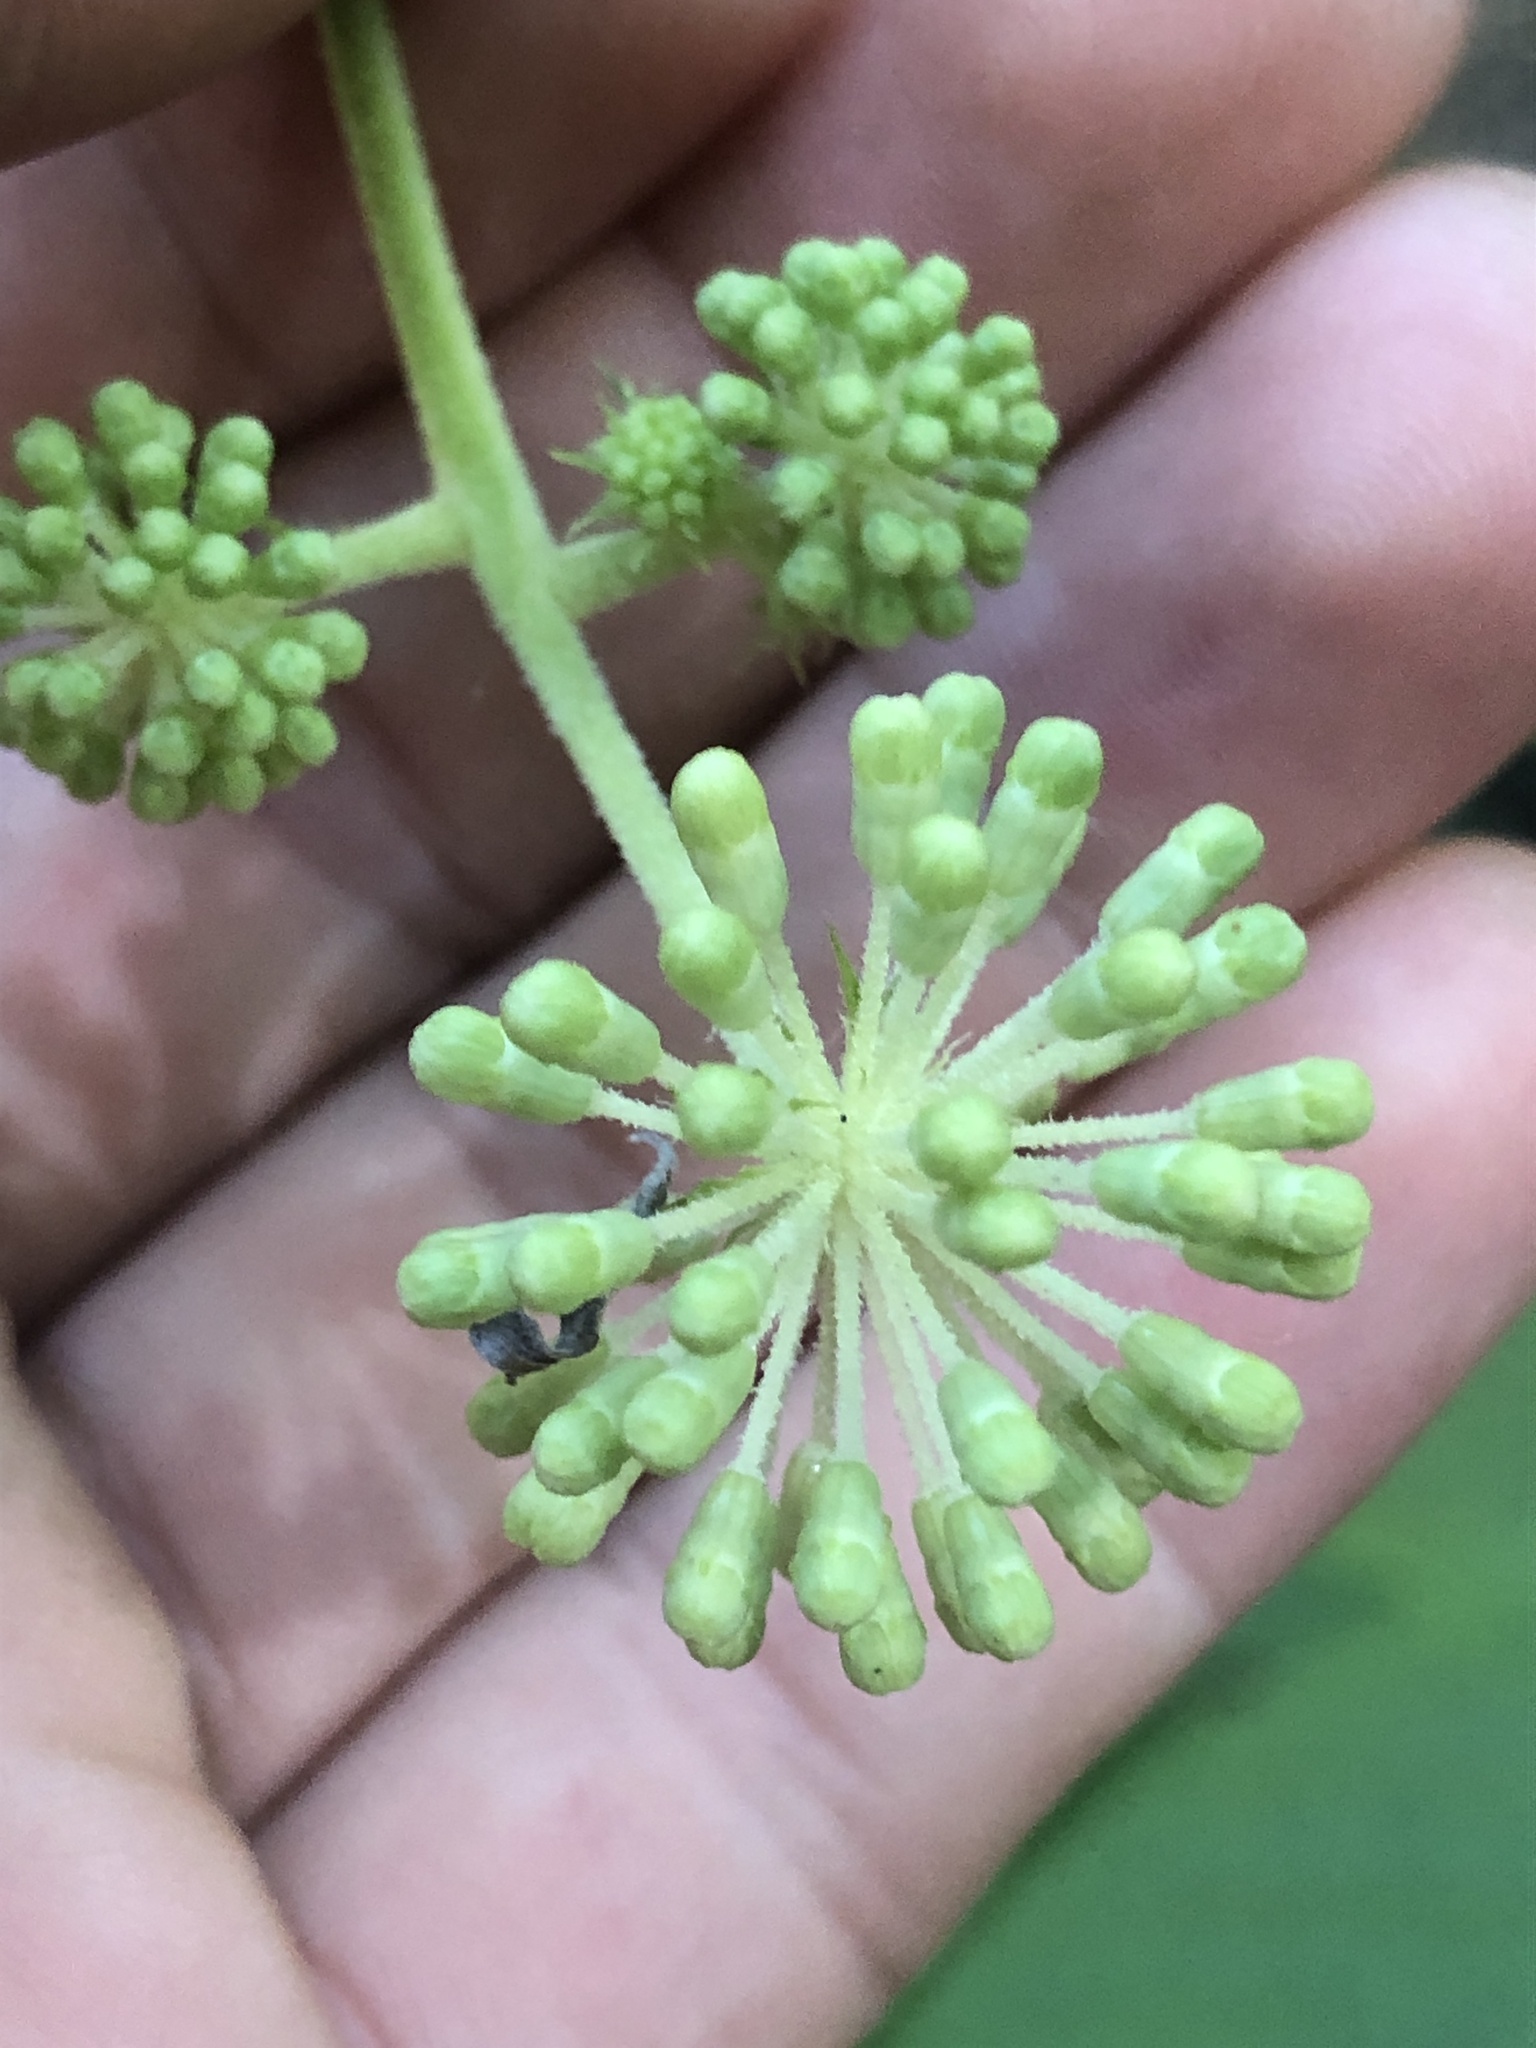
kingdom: Plantae
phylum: Tracheophyta
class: Magnoliopsida
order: Apiales
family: Araliaceae
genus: Aralia
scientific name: Aralia californica
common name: California-ginseng
